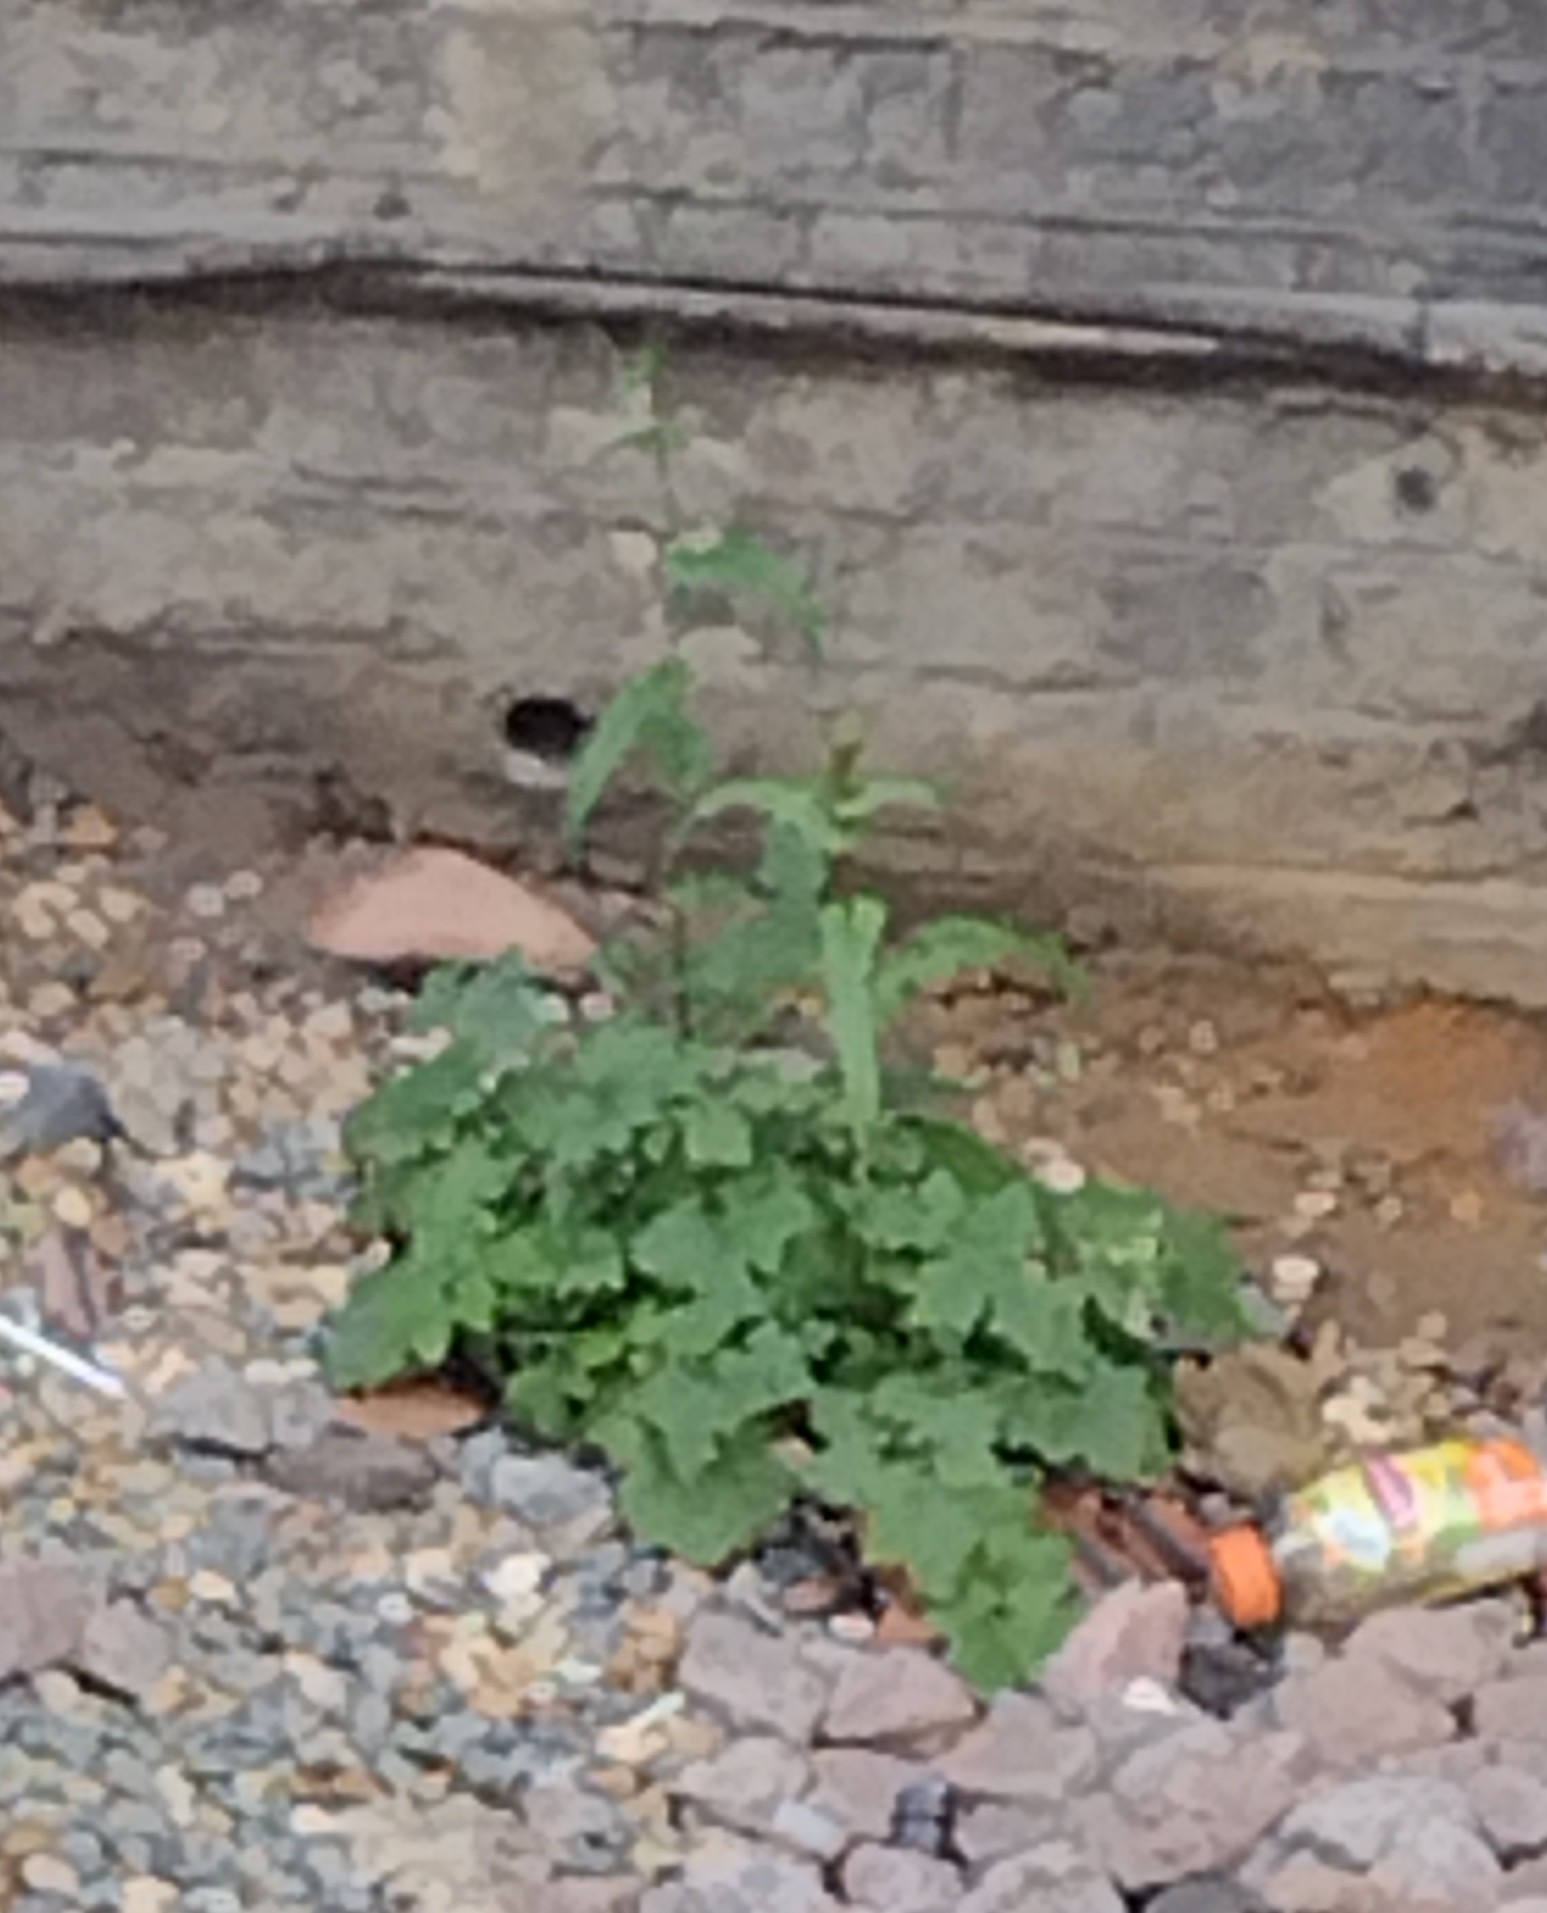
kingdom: Plantae
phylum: Tracheophyta
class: Magnoliopsida
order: Asterales
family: Asteraceae
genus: Mycelis
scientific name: Mycelis muralis
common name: Wall lettuce
